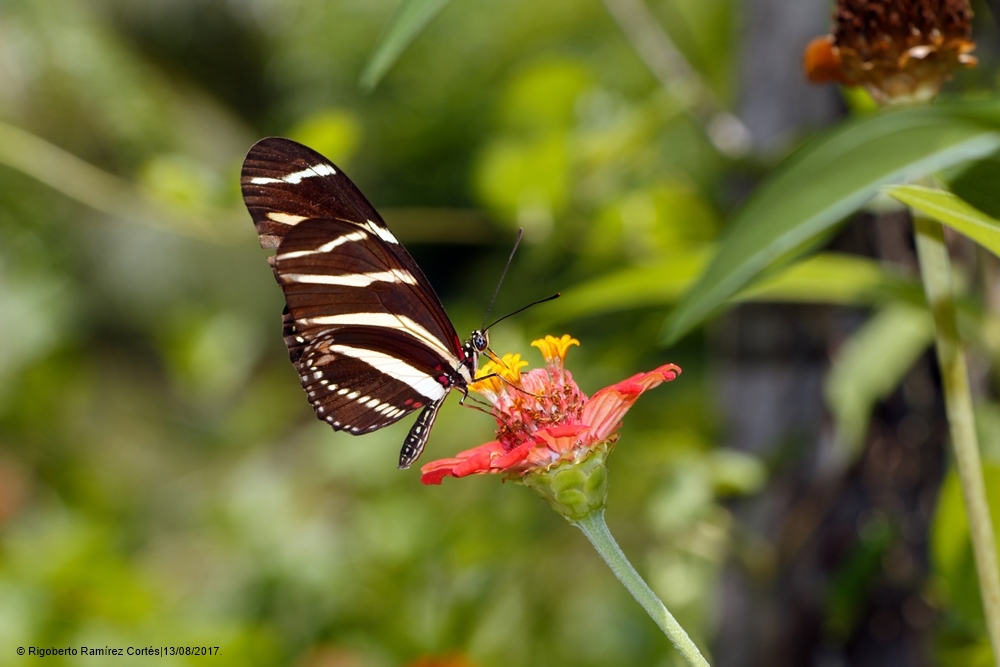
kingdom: Animalia
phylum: Arthropoda
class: Insecta
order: Lepidoptera
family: Nymphalidae
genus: Heliconius
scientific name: Heliconius charithonia
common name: Zebra long wing
